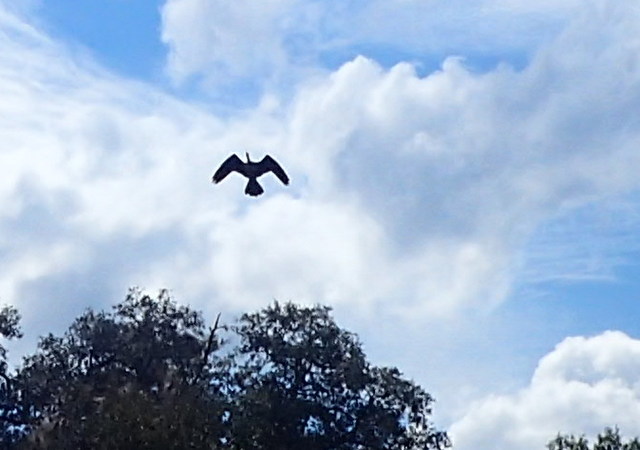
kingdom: Animalia
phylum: Chordata
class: Aves
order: Suliformes
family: Anhingidae
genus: Anhinga
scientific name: Anhinga anhinga
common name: Anhinga
